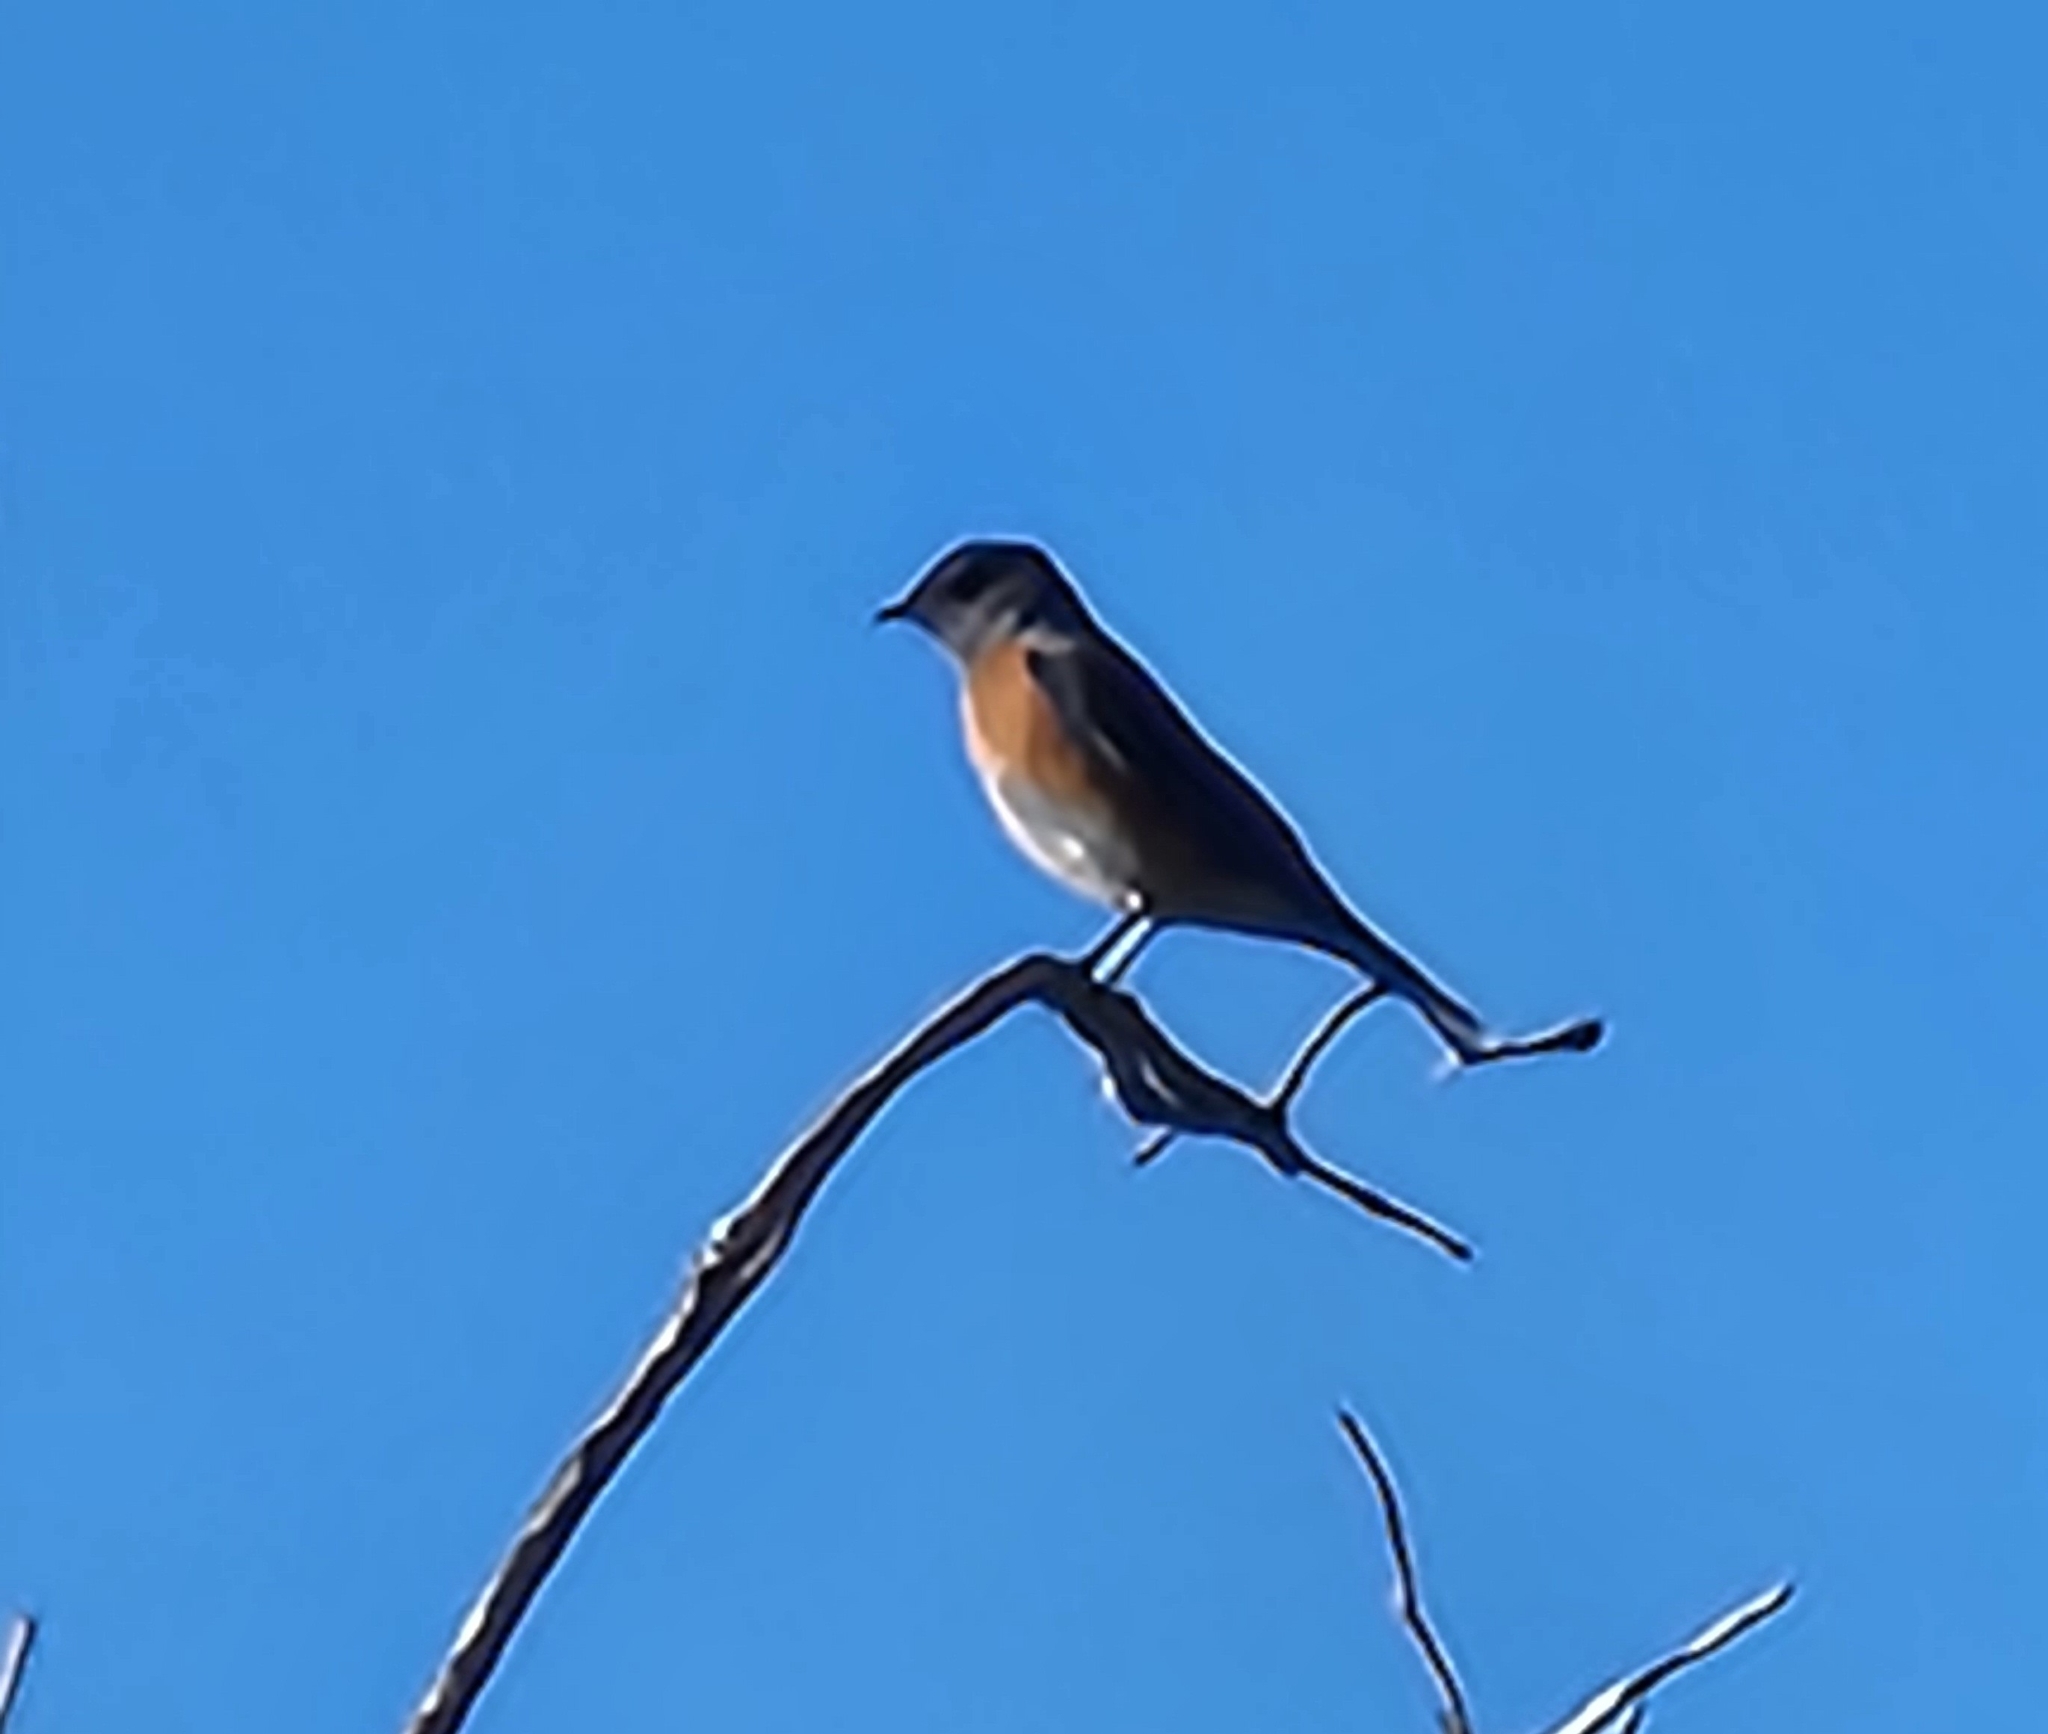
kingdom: Animalia
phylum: Chordata
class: Aves
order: Passeriformes
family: Turdidae
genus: Sialia
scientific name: Sialia mexicana
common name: Western bluebird
